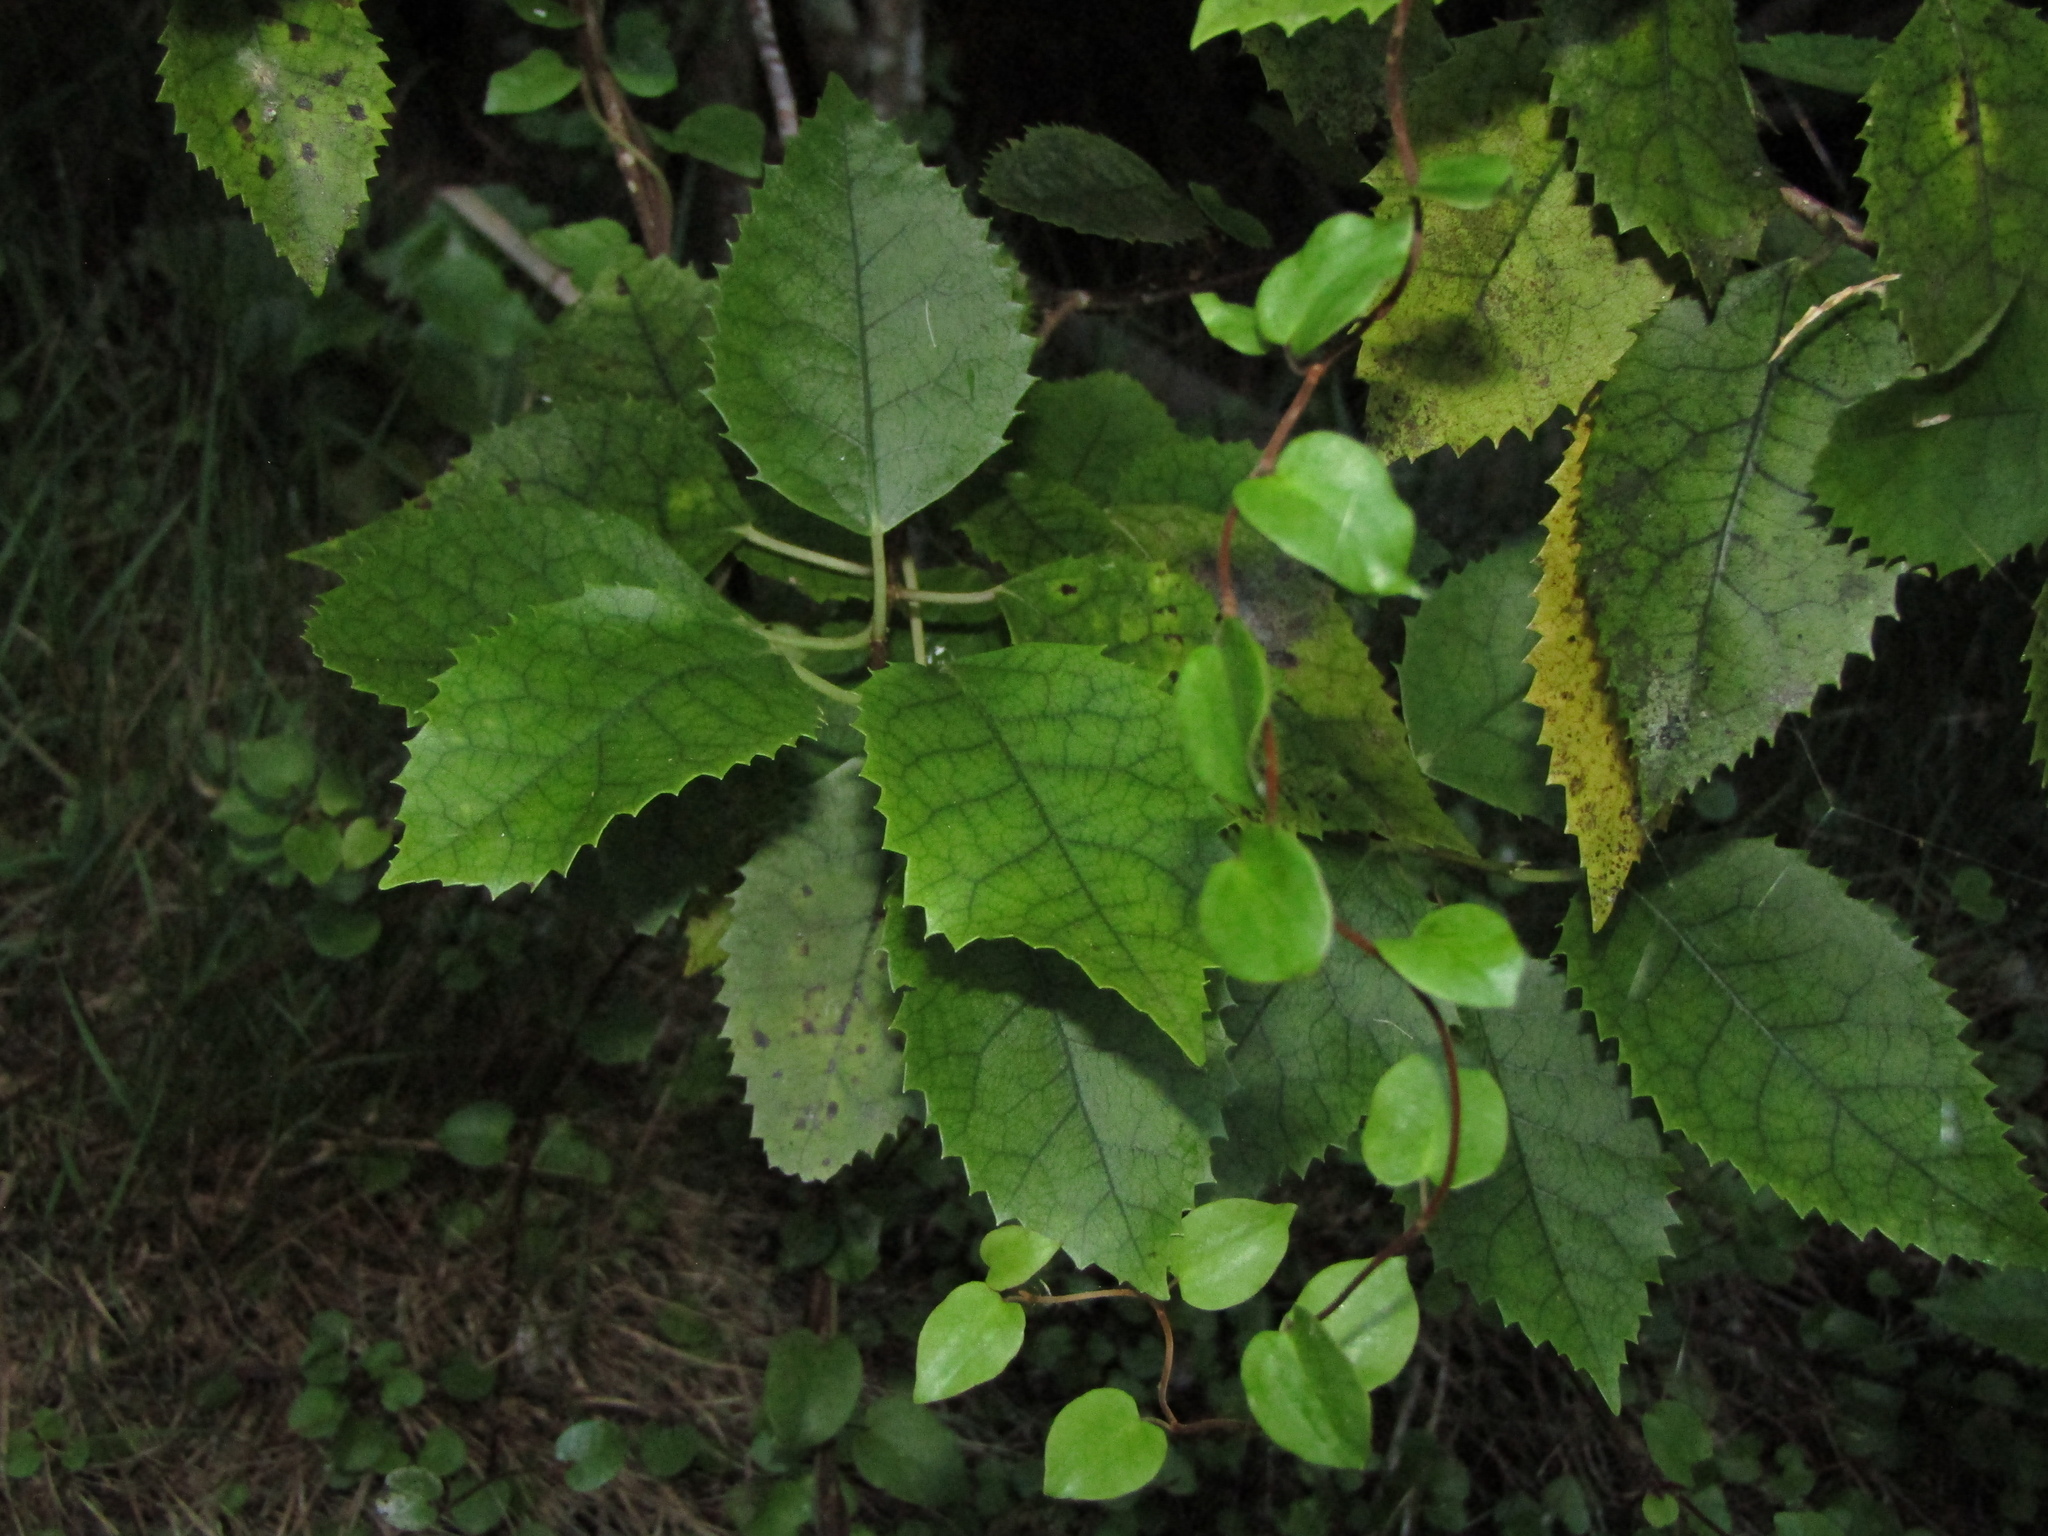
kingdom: Plantae
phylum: Tracheophyta
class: Magnoliopsida
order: Malvales
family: Malvaceae
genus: Hoheria
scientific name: Hoheria populnea
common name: Lacebark
